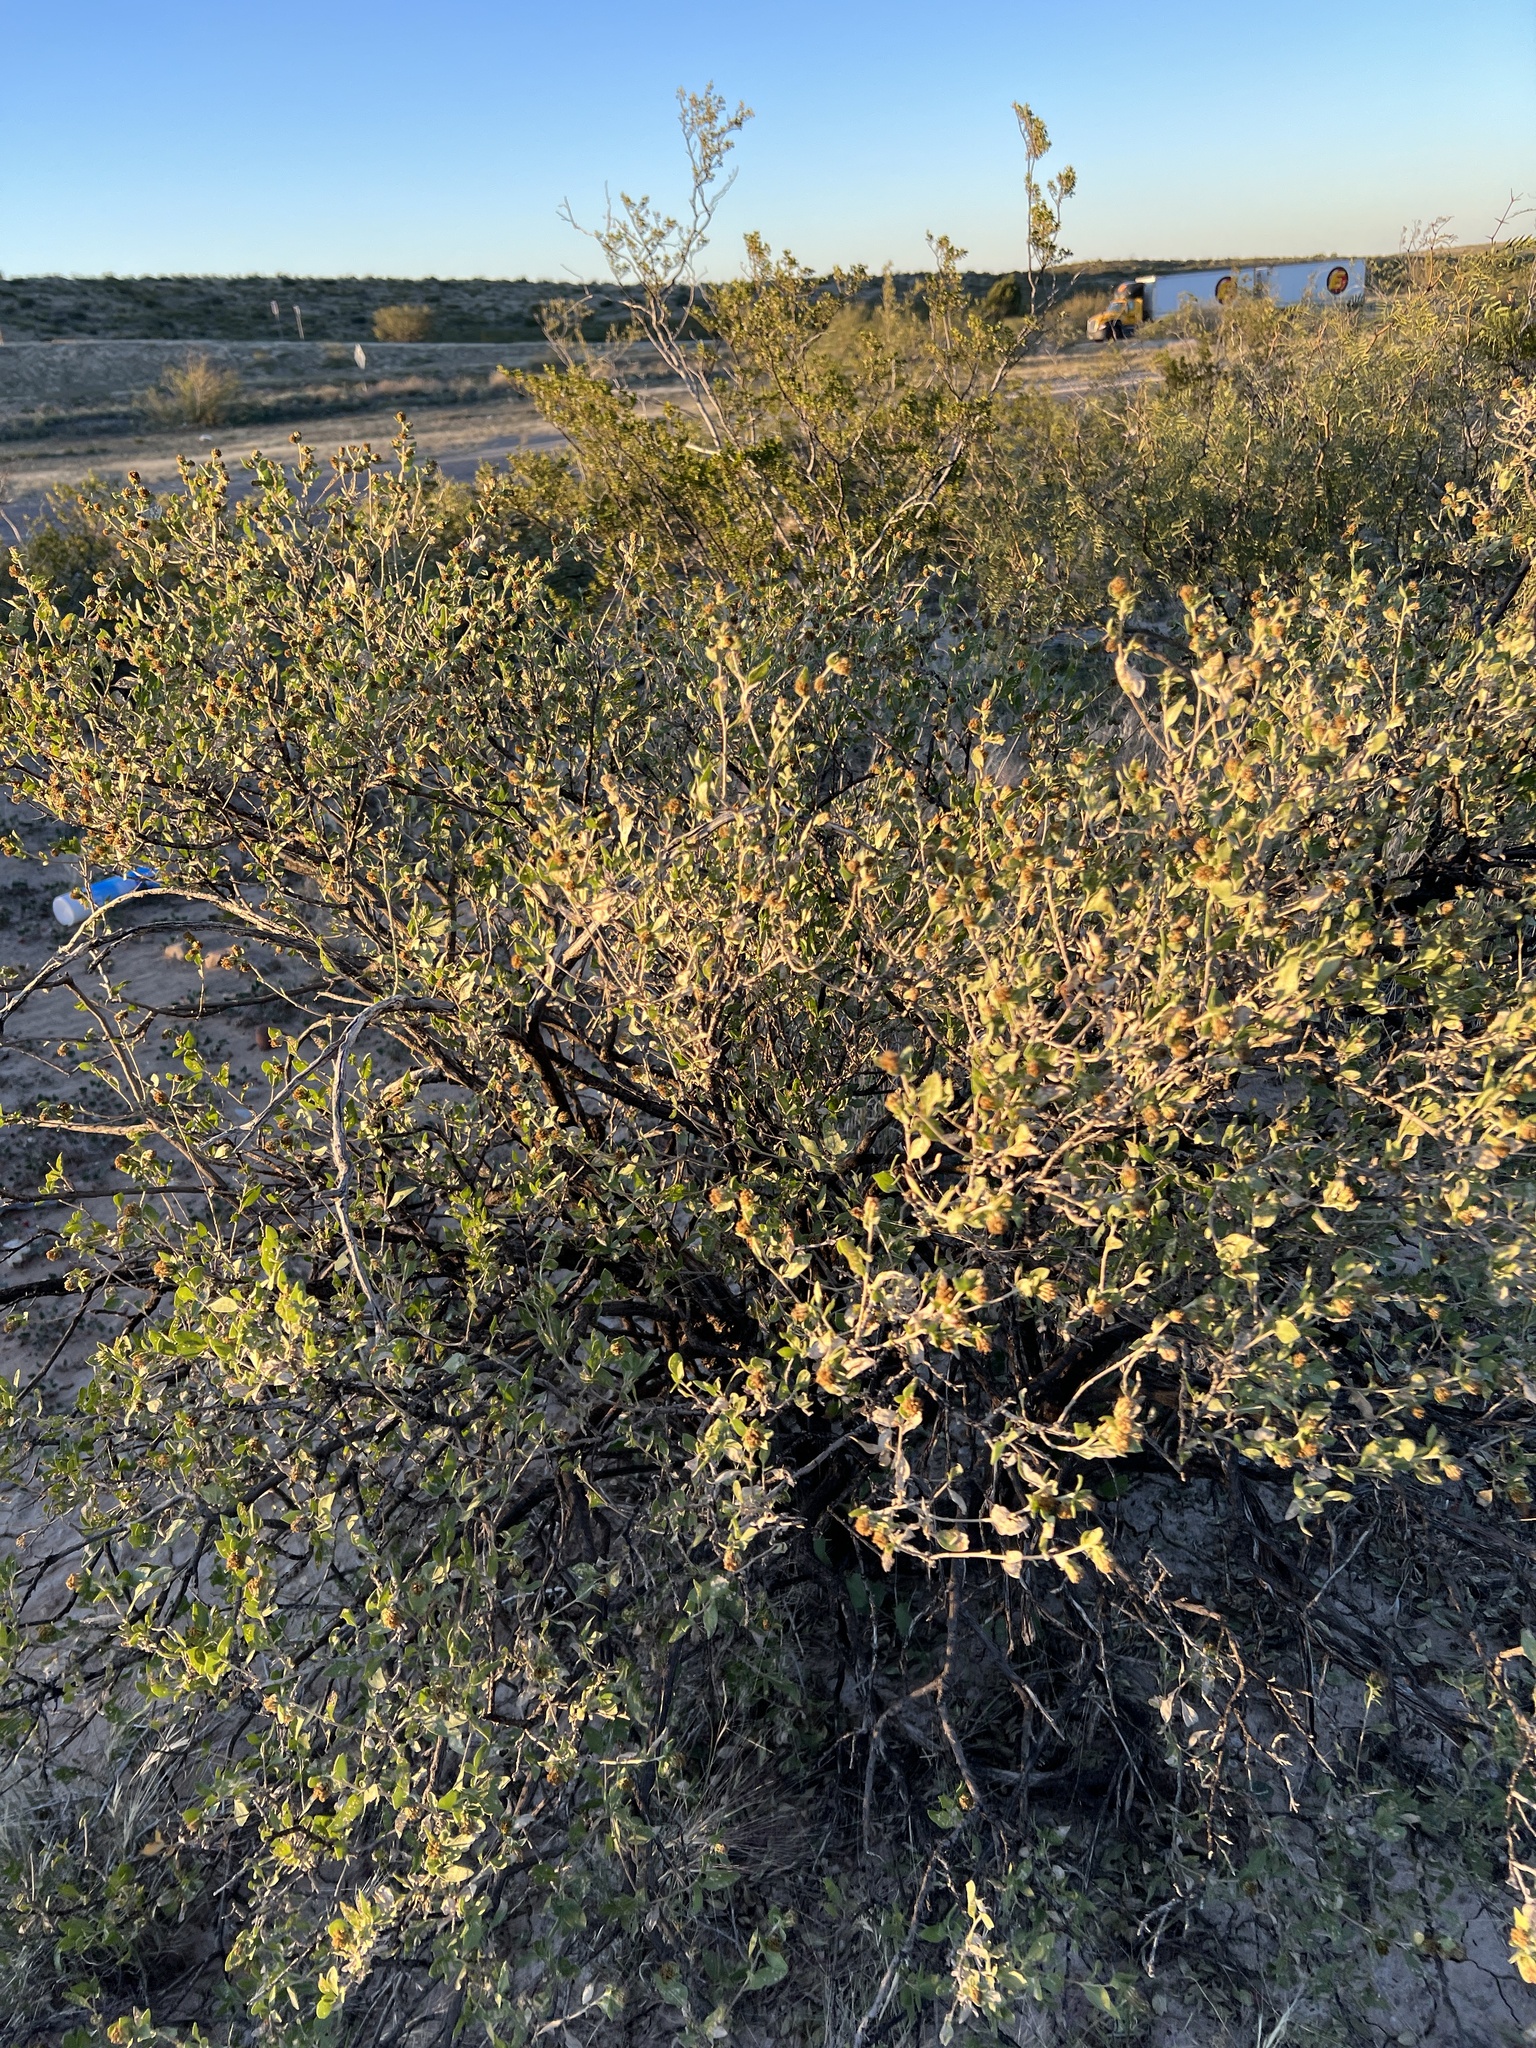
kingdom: Plantae
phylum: Tracheophyta
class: Magnoliopsida
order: Asterales
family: Asteraceae
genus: Flourensia
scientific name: Flourensia cernua
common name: Varnishbush
